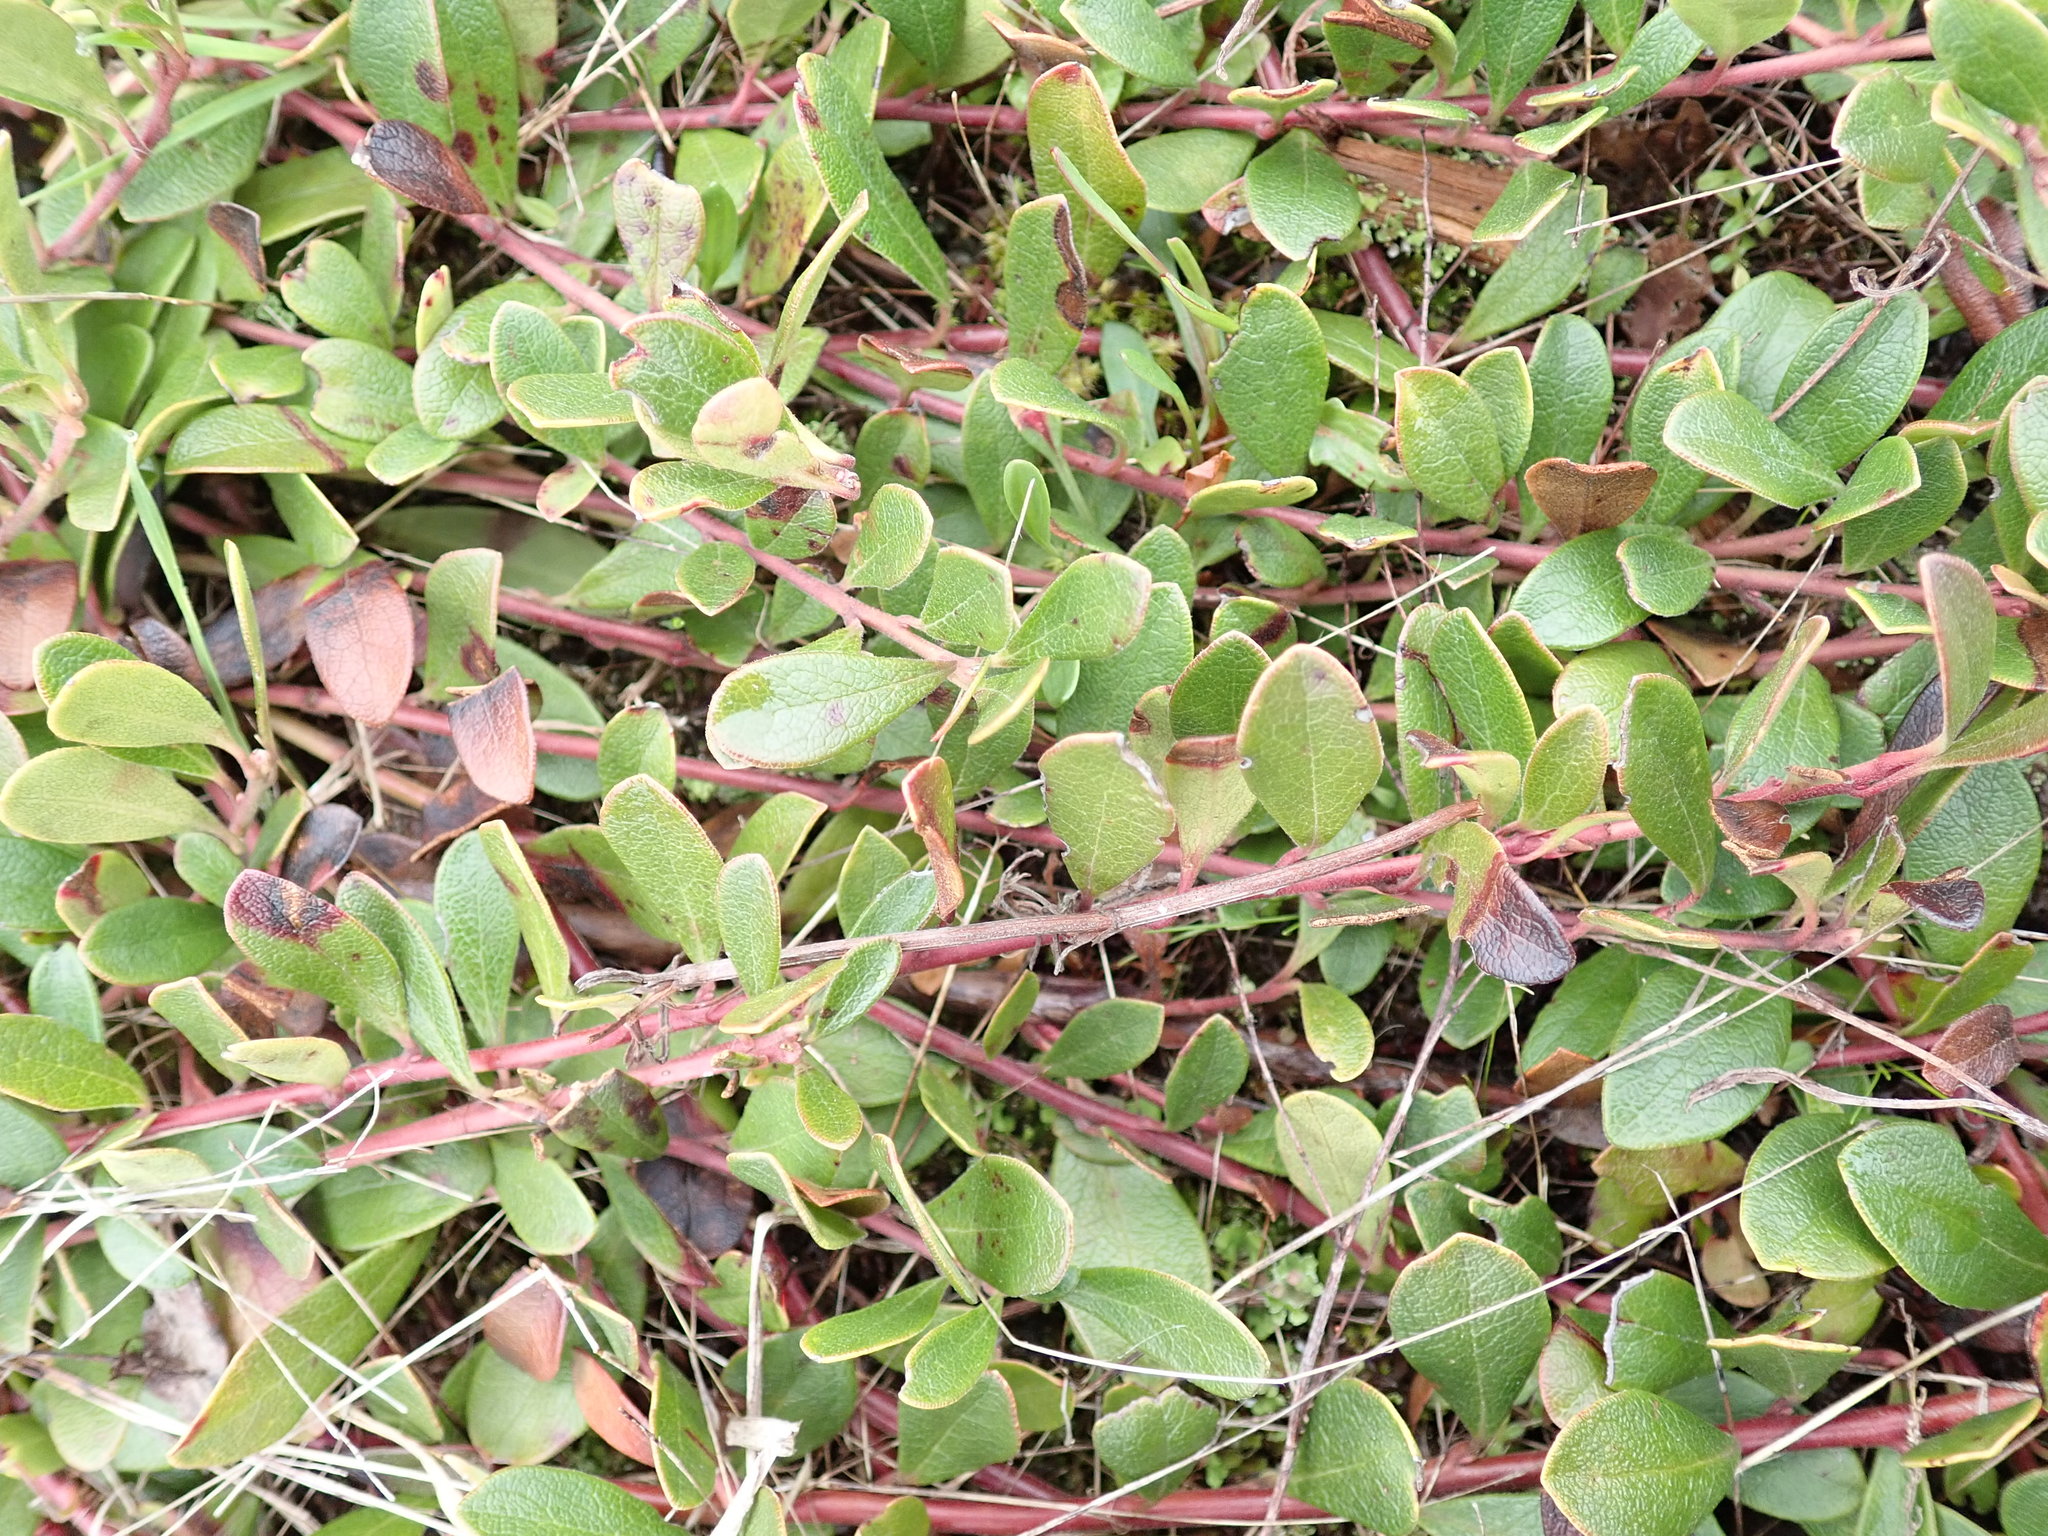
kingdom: Plantae
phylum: Tracheophyta
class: Magnoliopsida
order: Ericales
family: Ericaceae
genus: Arctostaphylos
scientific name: Arctostaphylos uva-ursi
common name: Bearberry
